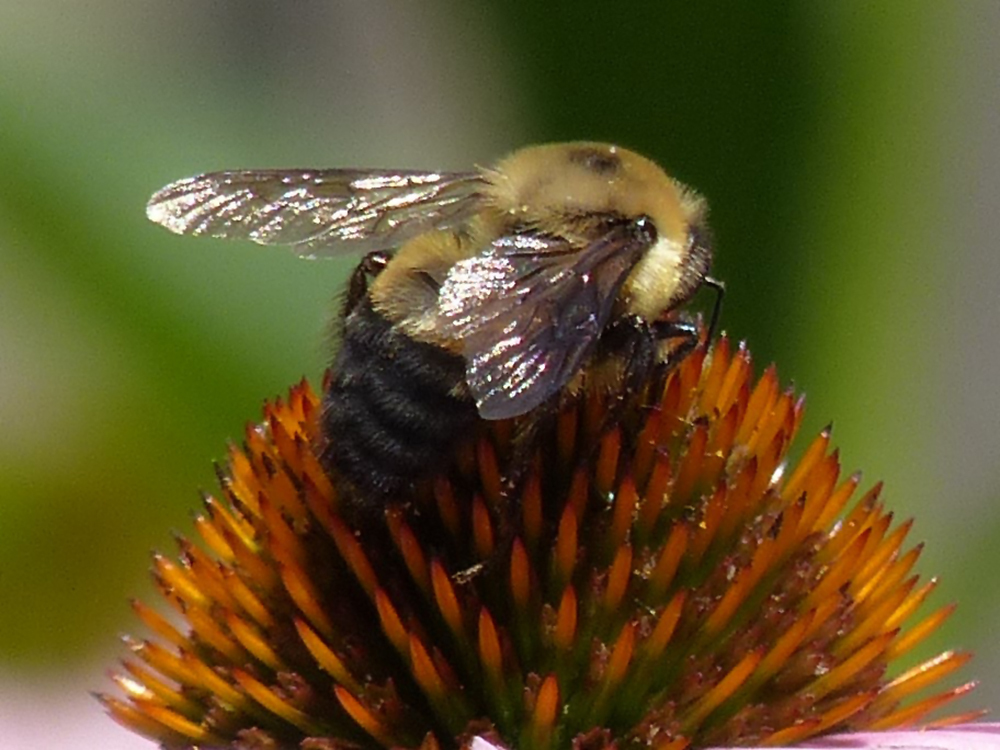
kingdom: Animalia
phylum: Arthropoda
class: Insecta
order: Hymenoptera
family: Apidae
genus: Bombus
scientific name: Bombus griseocollis
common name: Brown-belted bumble bee
